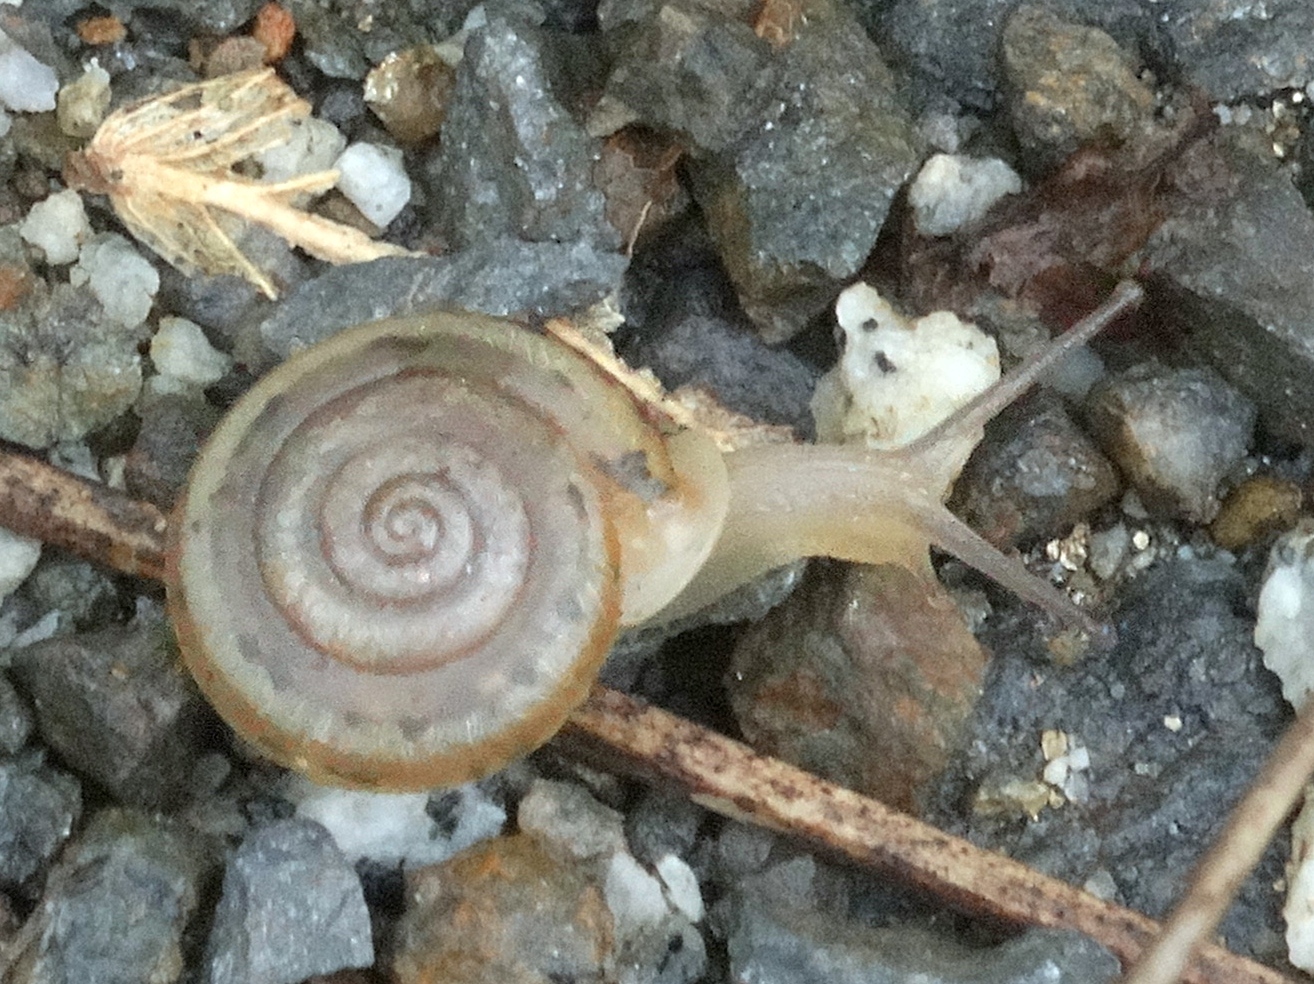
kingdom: Animalia
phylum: Mollusca
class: Gastropoda
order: Stylommatophora
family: Polygyridae
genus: Linisa
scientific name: Linisa
